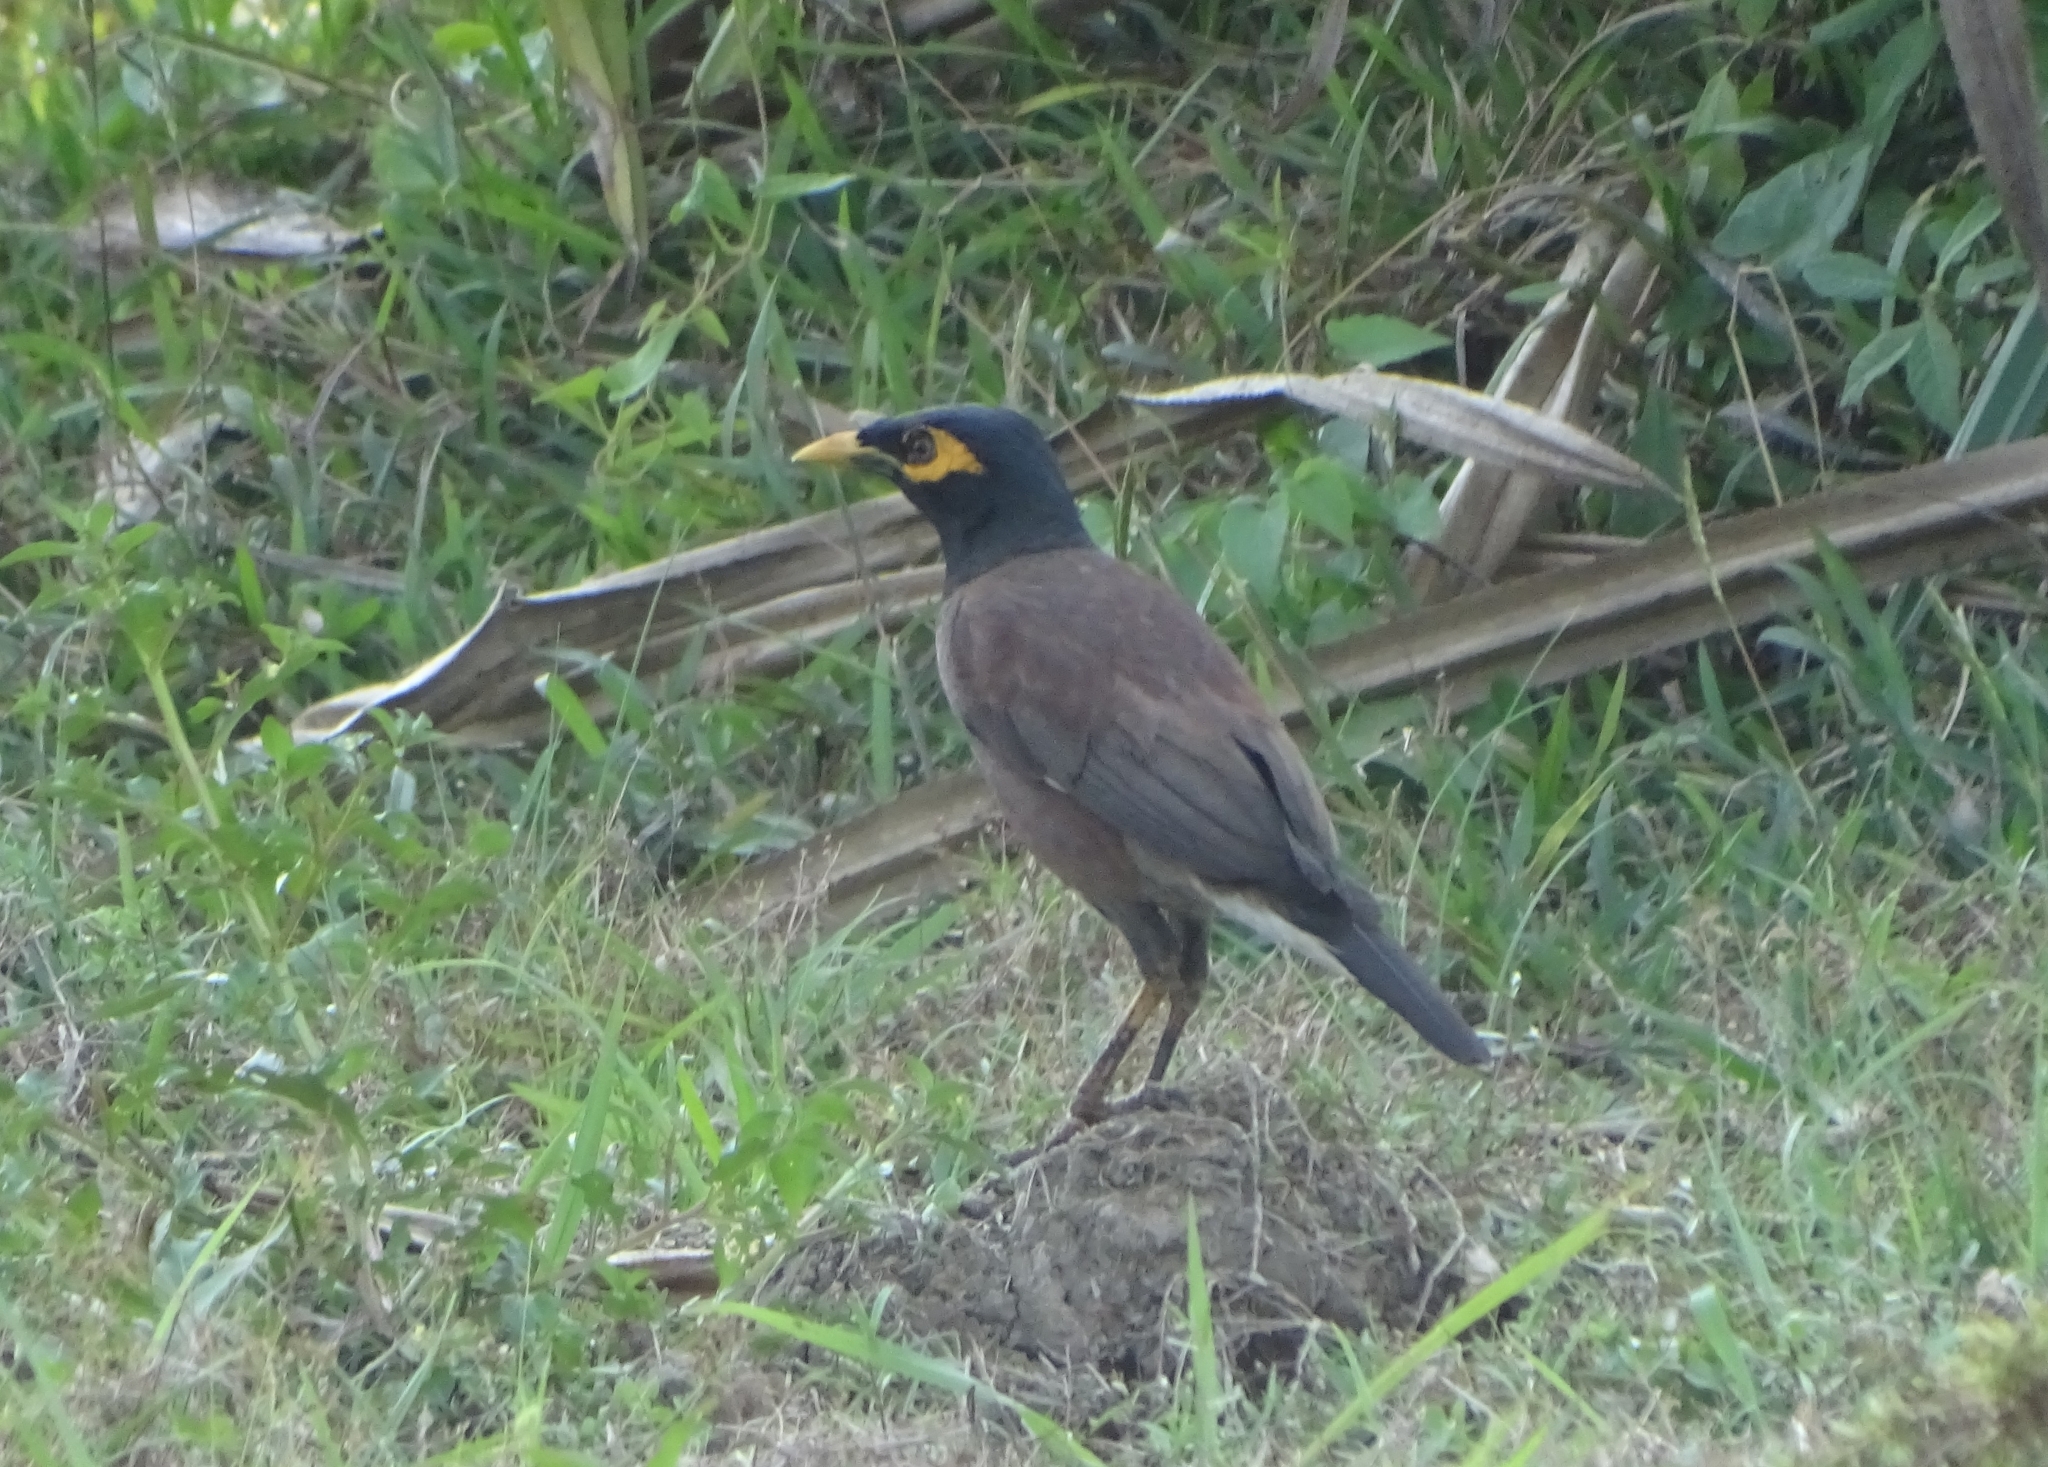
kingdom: Animalia
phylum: Chordata
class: Aves
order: Passeriformes
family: Sturnidae
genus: Acridotheres
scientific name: Acridotheres tristis
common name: Common myna
